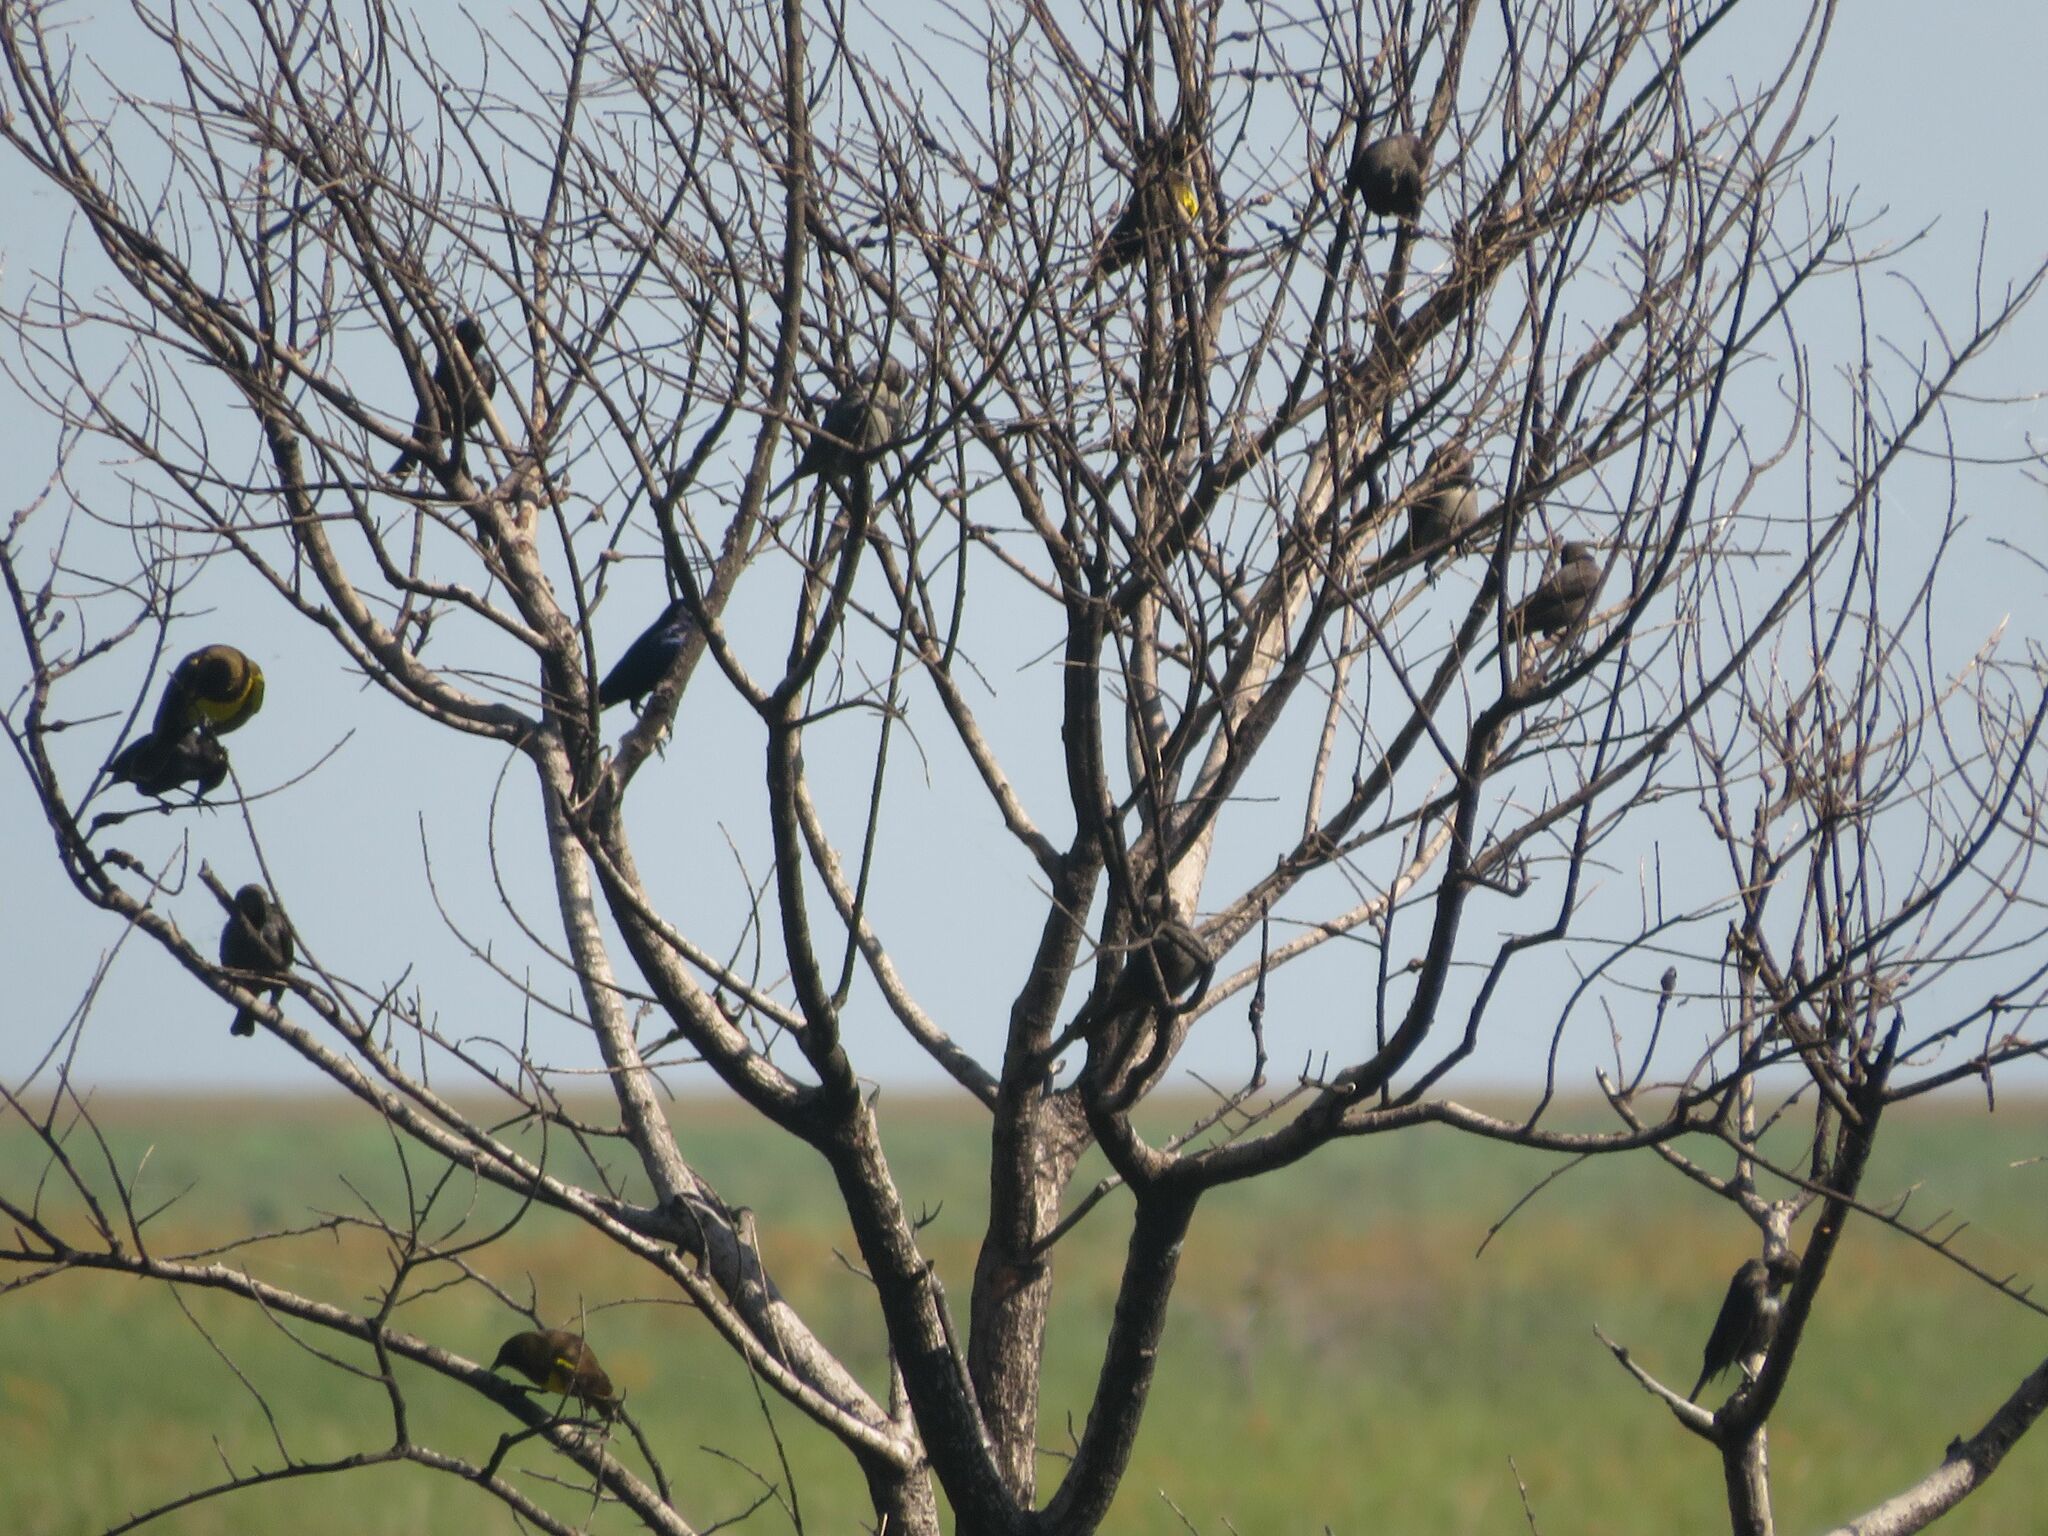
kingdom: Animalia
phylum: Chordata
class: Aves
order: Passeriformes
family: Icteridae
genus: Pseudoleistes
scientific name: Pseudoleistes guirahuro
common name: Yellow-rumped marshbird
